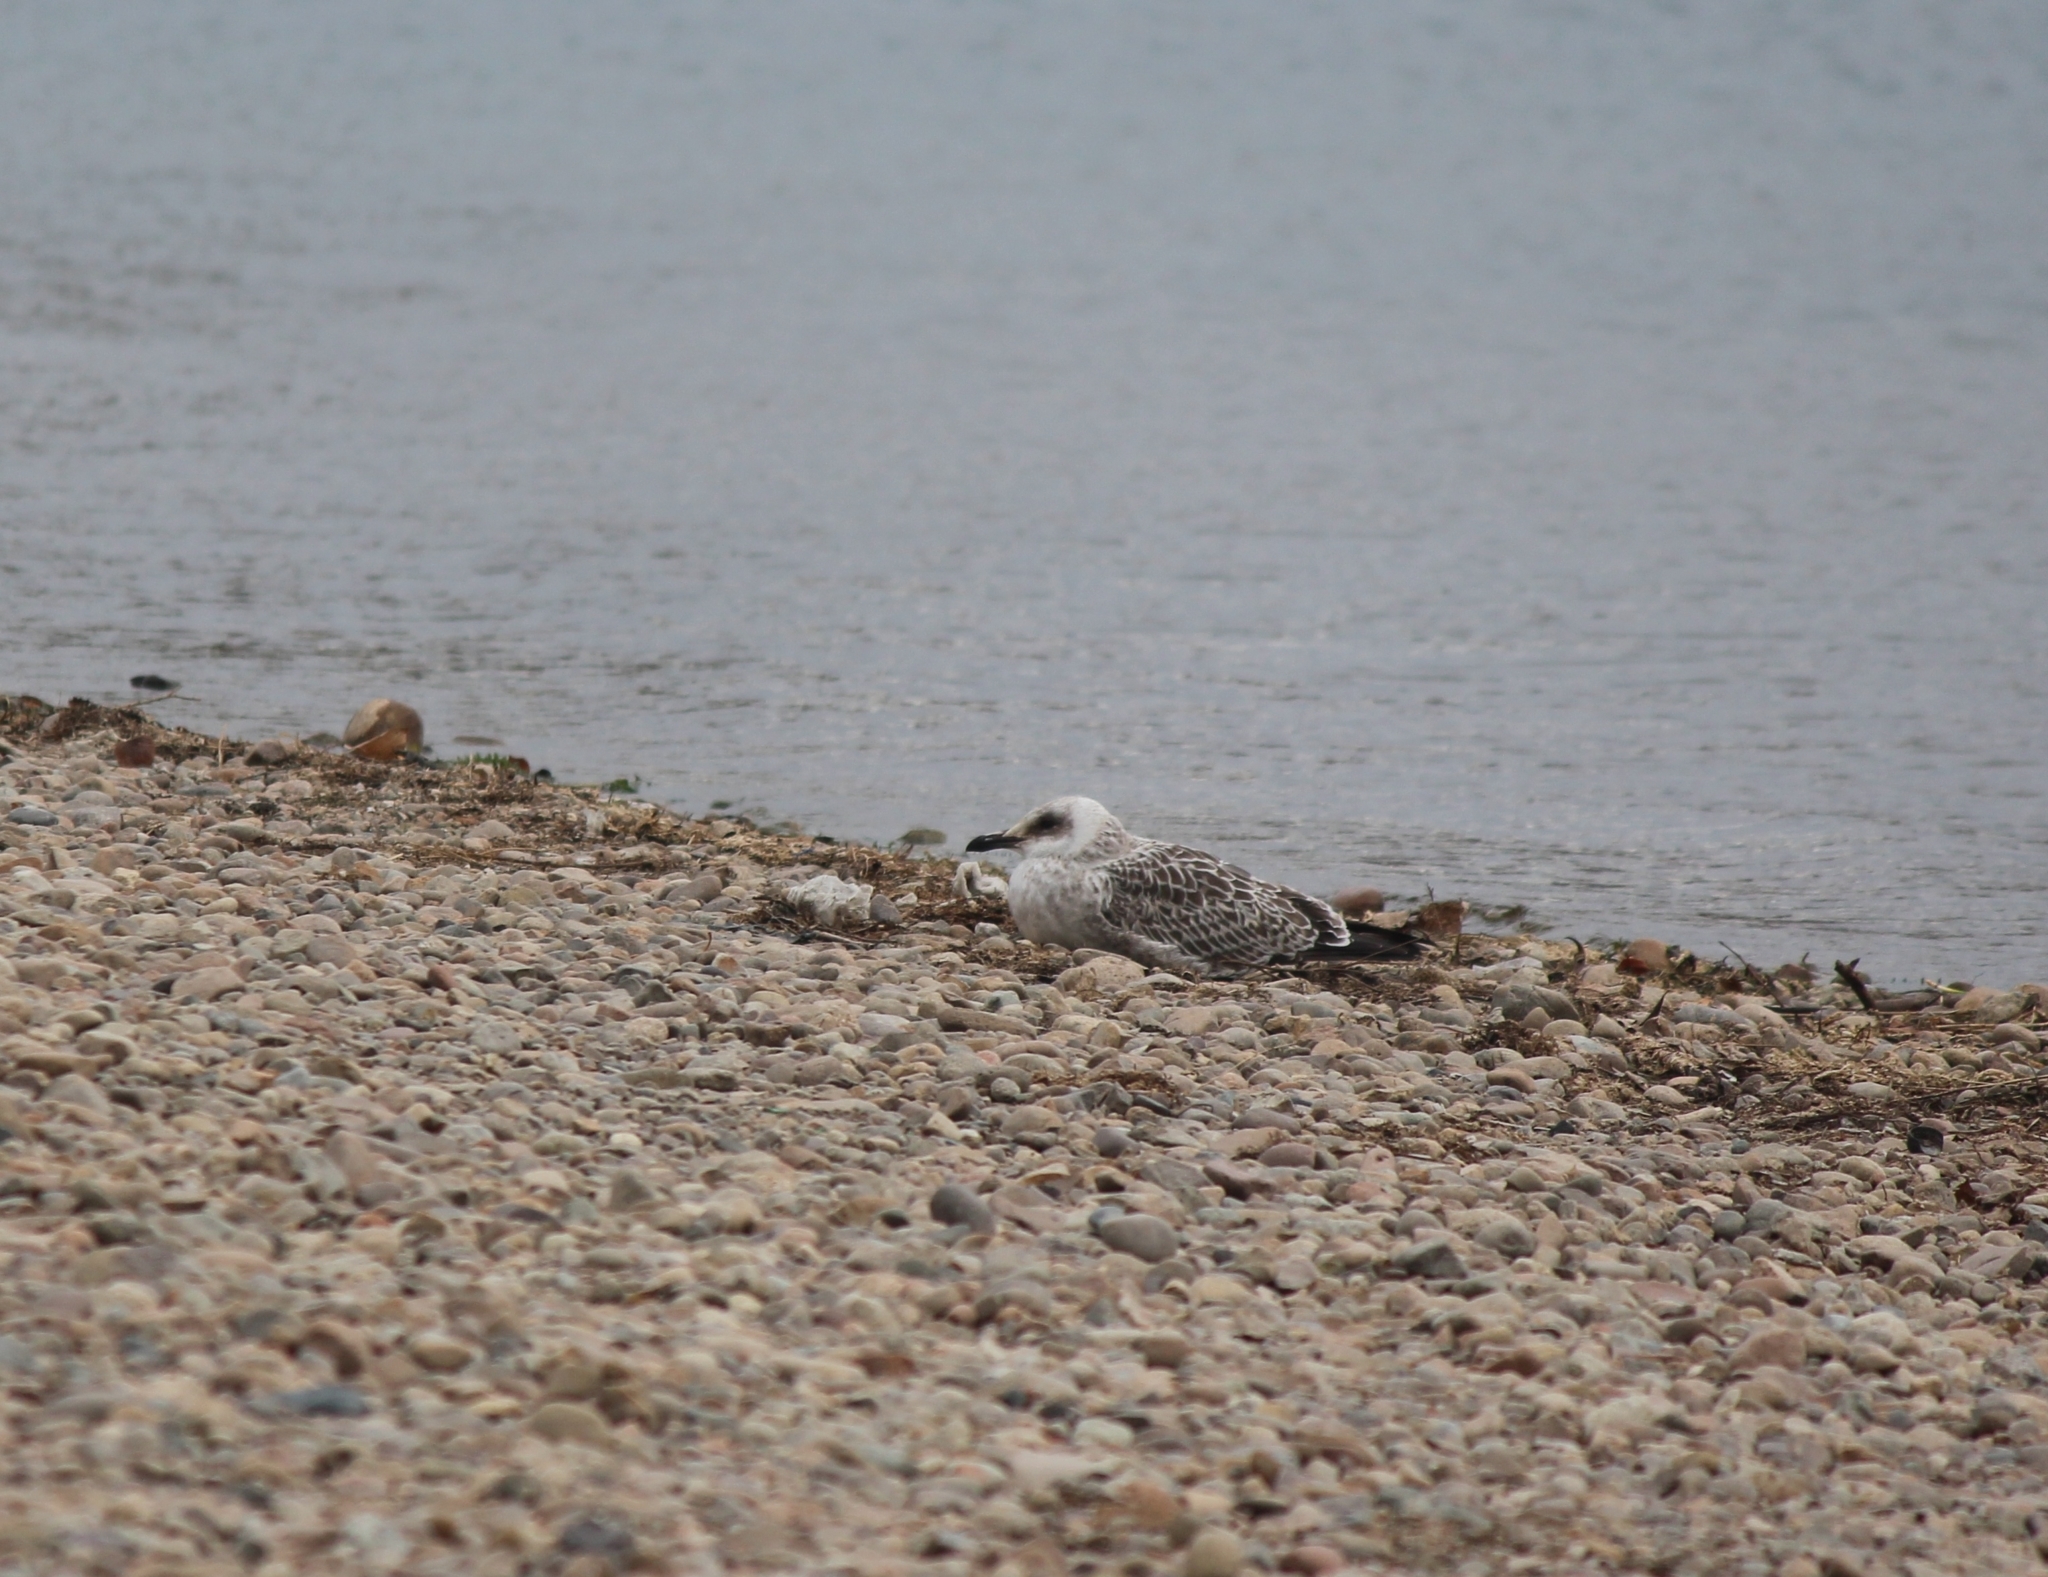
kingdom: Animalia
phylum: Chordata
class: Aves
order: Charadriiformes
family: Laridae
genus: Larus
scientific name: Larus vegae
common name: Vega gull
